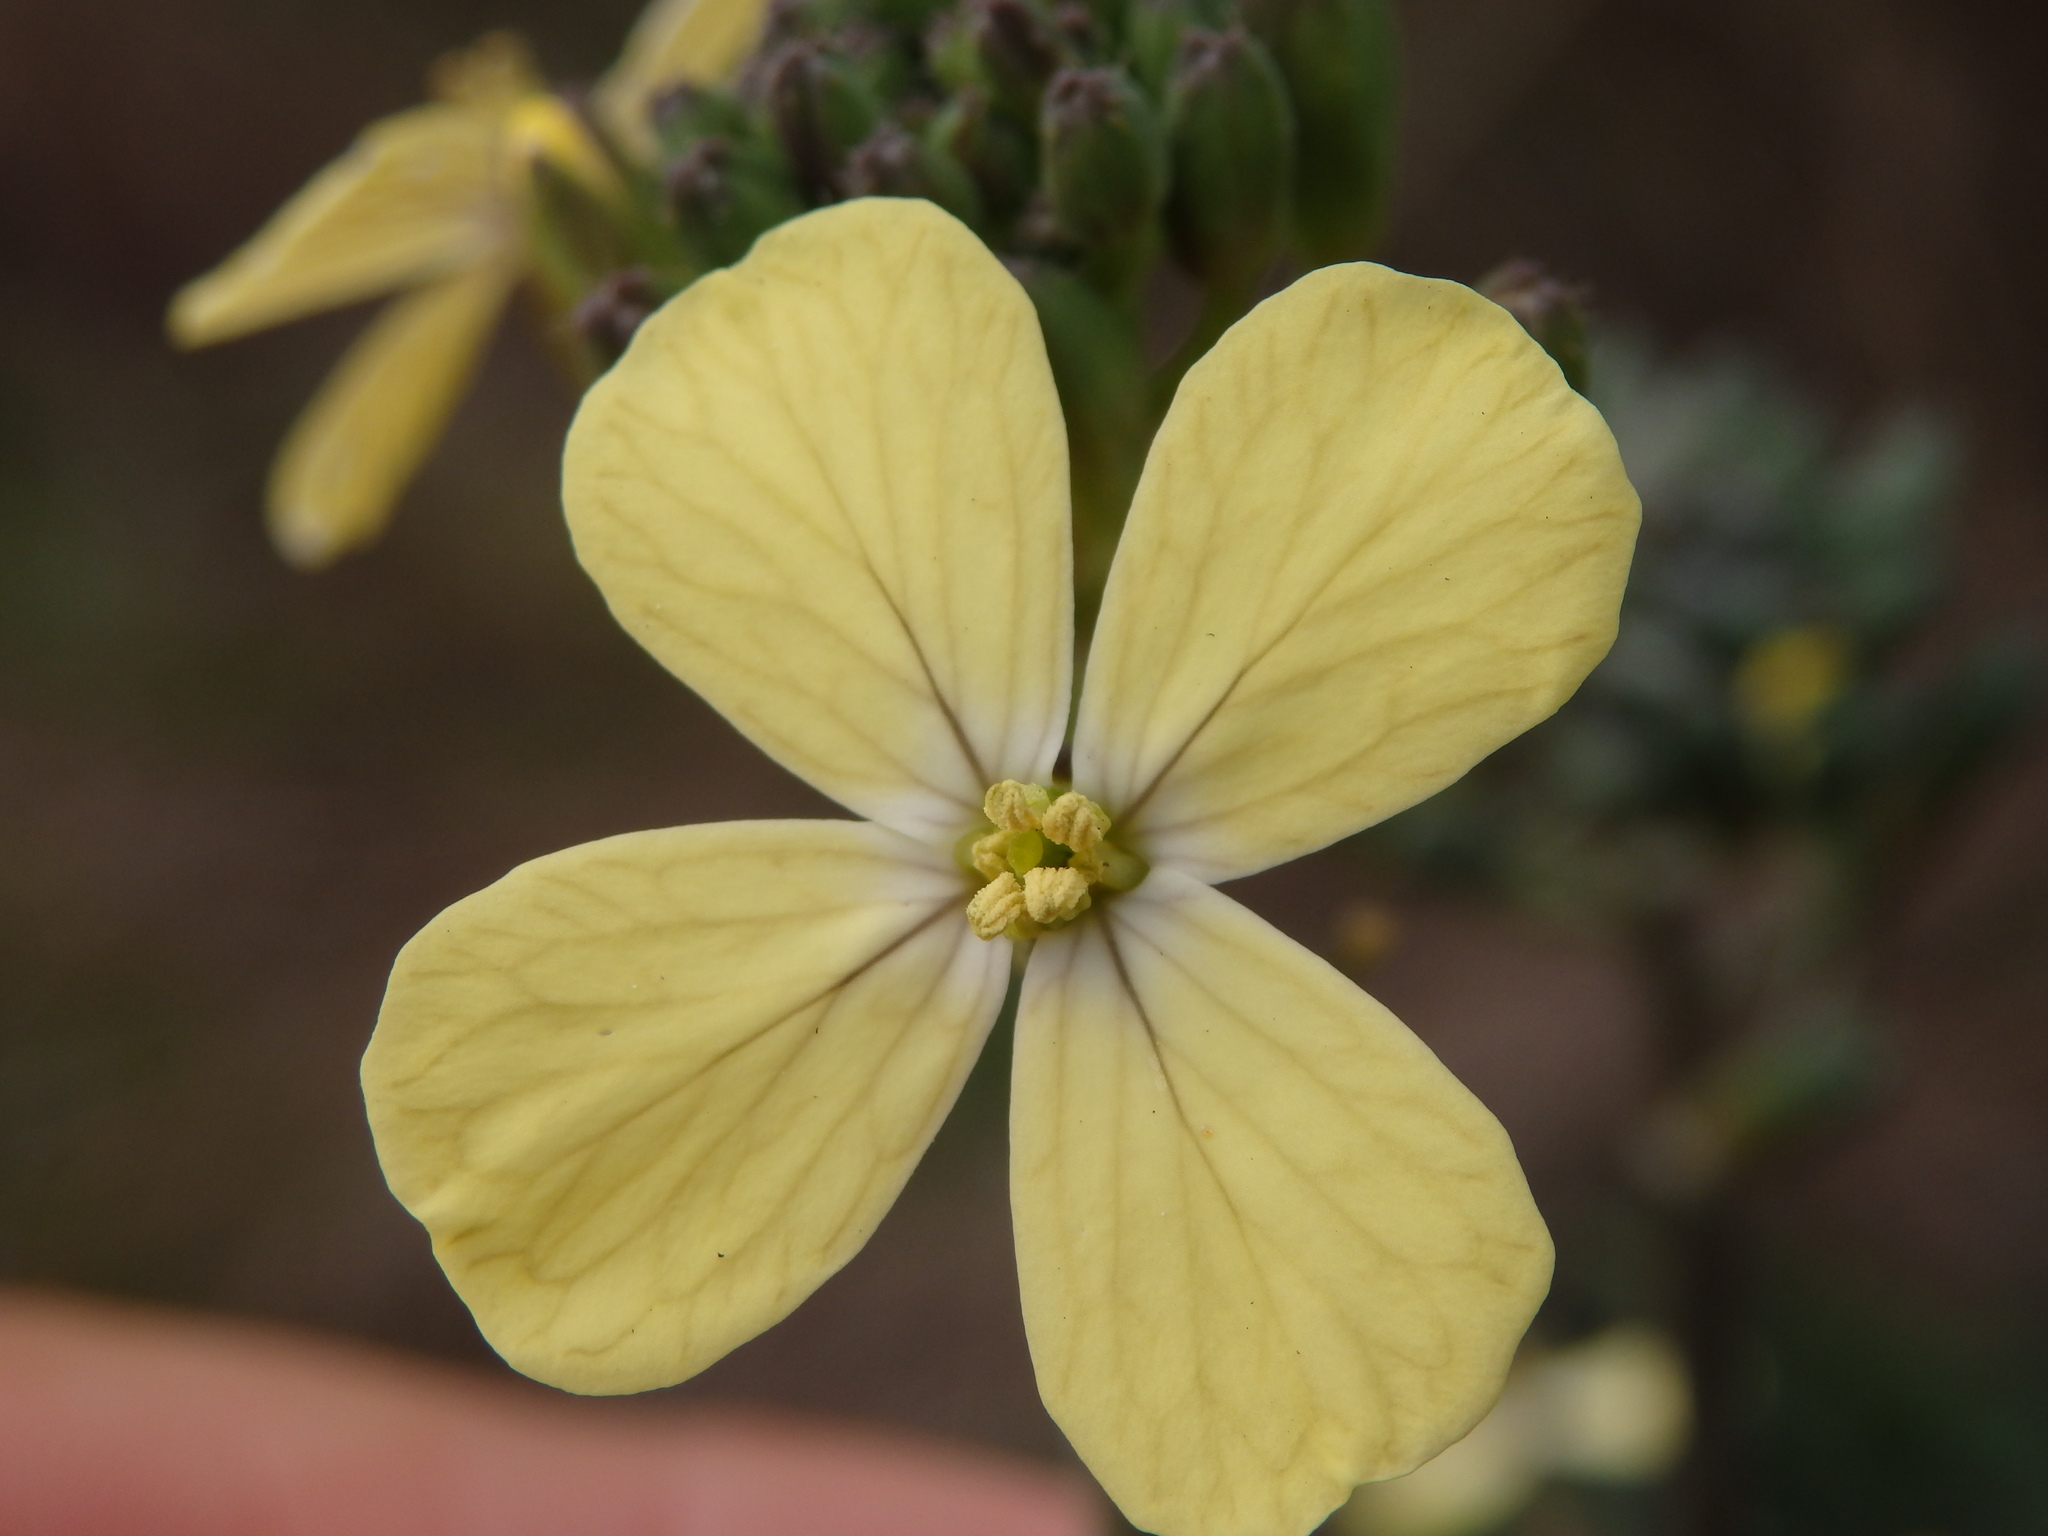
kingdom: Plantae
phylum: Tracheophyta
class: Magnoliopsida
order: Brassicales
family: Brassicaceae
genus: Coincya
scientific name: Coincya monensis
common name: Star-mustard
